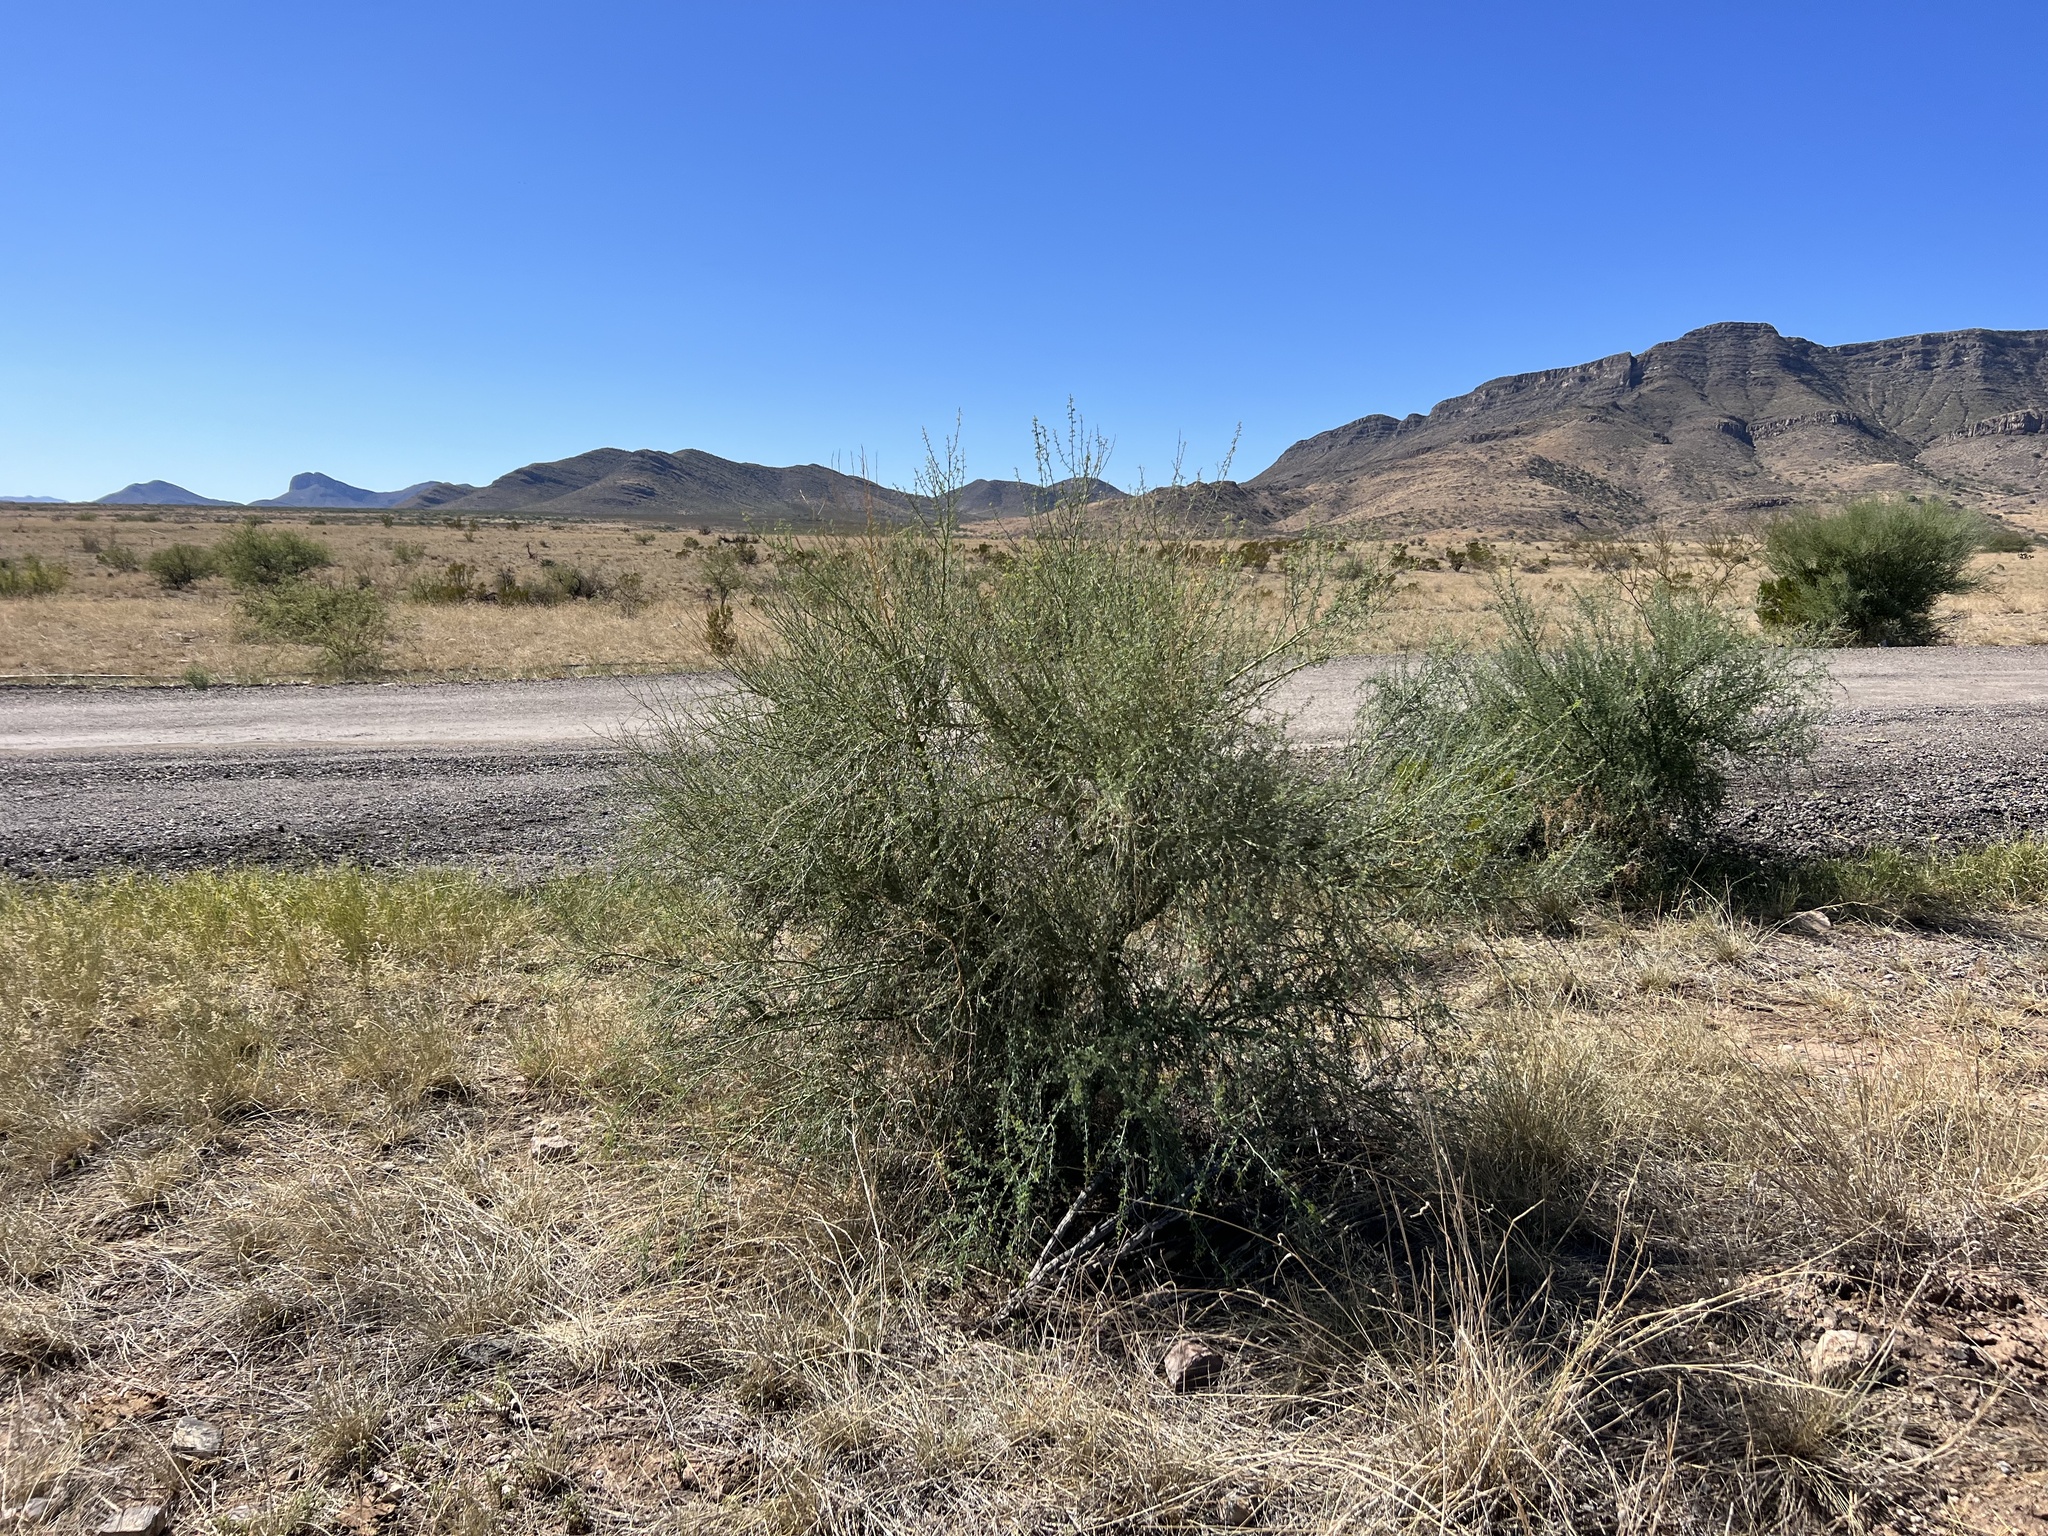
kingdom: Plantae
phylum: Tracheophyta
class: Magnoliopsida
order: Fabales
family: Fabaceae
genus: Parkinsonia
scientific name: Parkinsonia florida
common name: Blue paloverde
